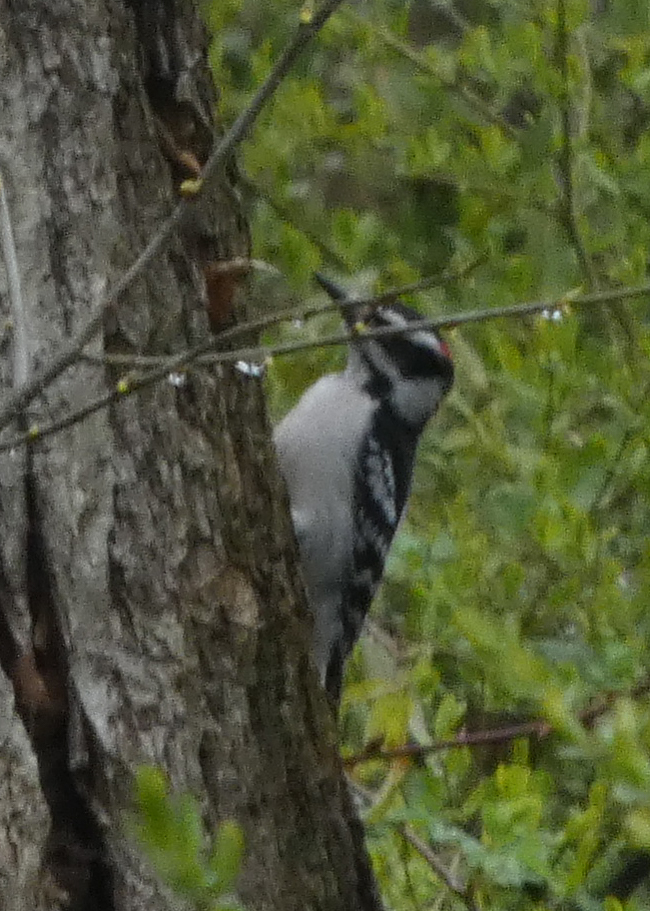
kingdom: Animalia
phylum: Chordata
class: Aves
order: Piciformes
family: Picidae
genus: Dryobates
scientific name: Dryobates pubescens
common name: Downy woodpecker
